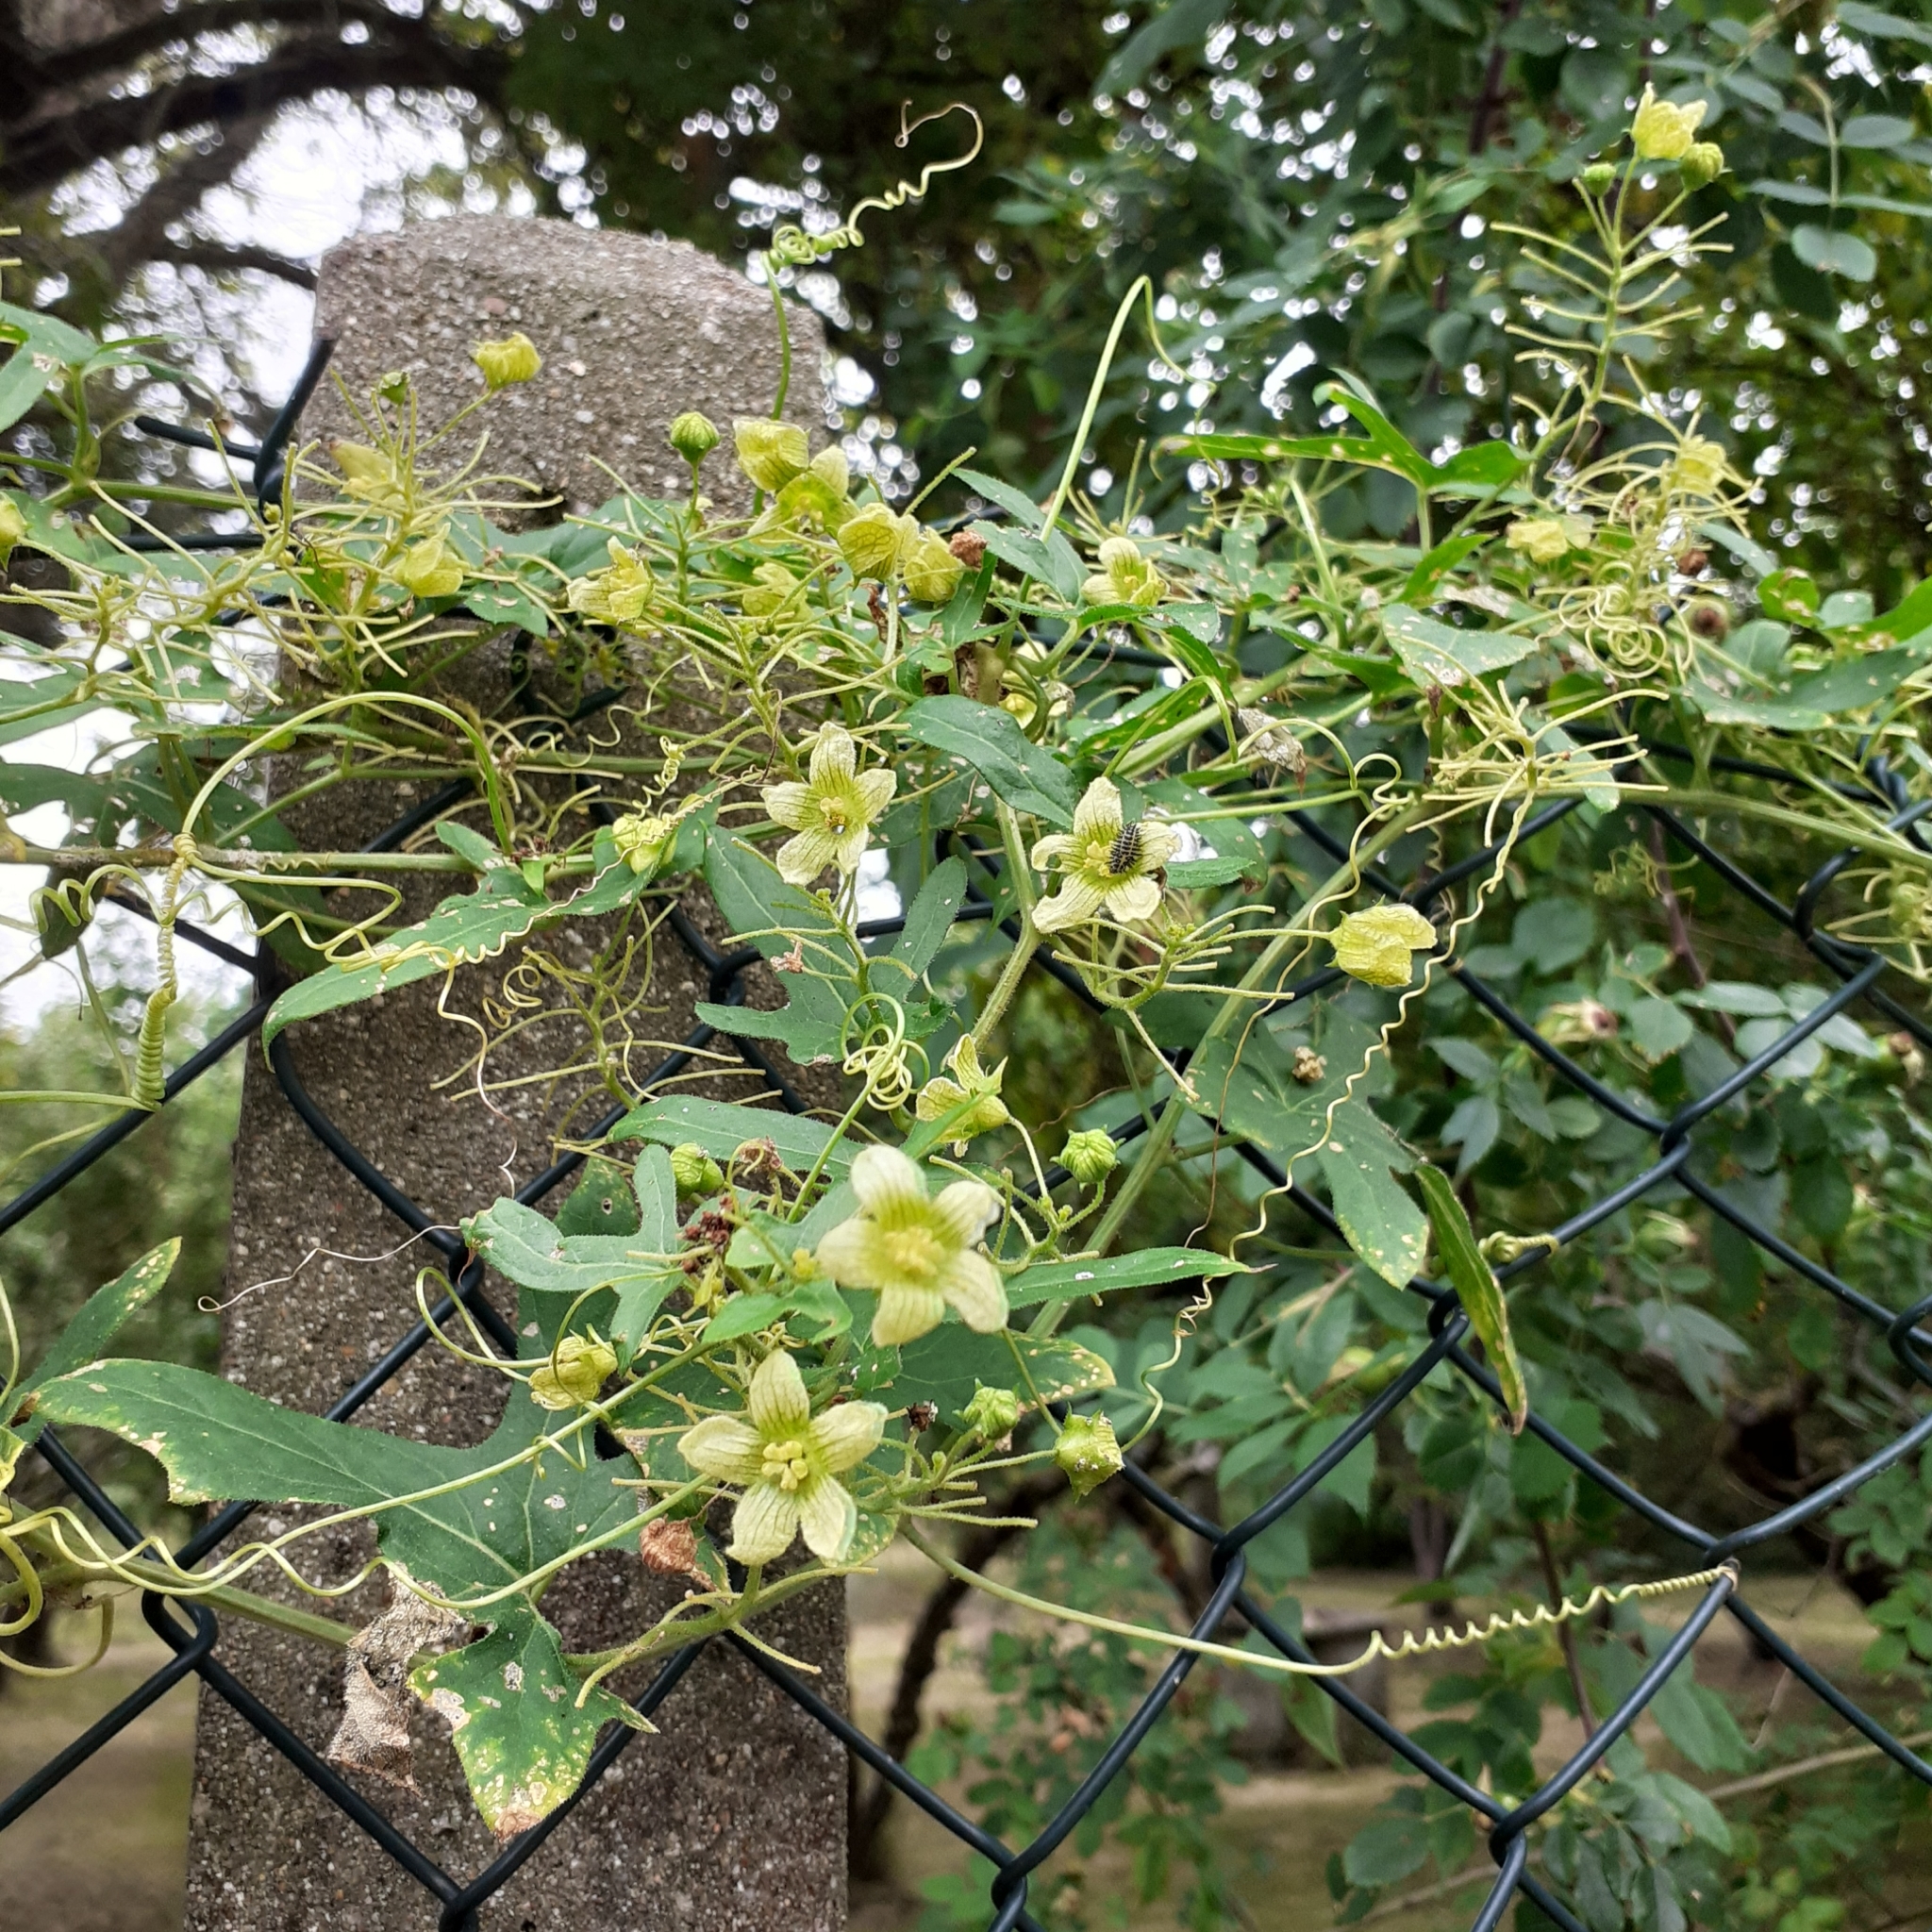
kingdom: Plantae
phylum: Tracheophyta
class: Magnoliopsida
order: Cucurbitales
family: Cucurbitaceae
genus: Bryonia
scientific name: Bryonia cretica
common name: Cretan bryony
